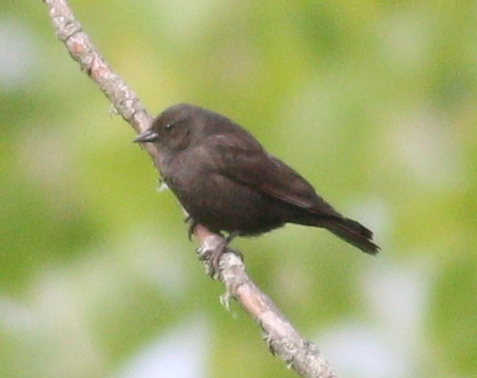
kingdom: Animalia
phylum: Chordata
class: Aves
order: Passeriformes
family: Icteridae
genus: Molothrus
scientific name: Molothrus bonariensis
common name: Shiny cowbird
